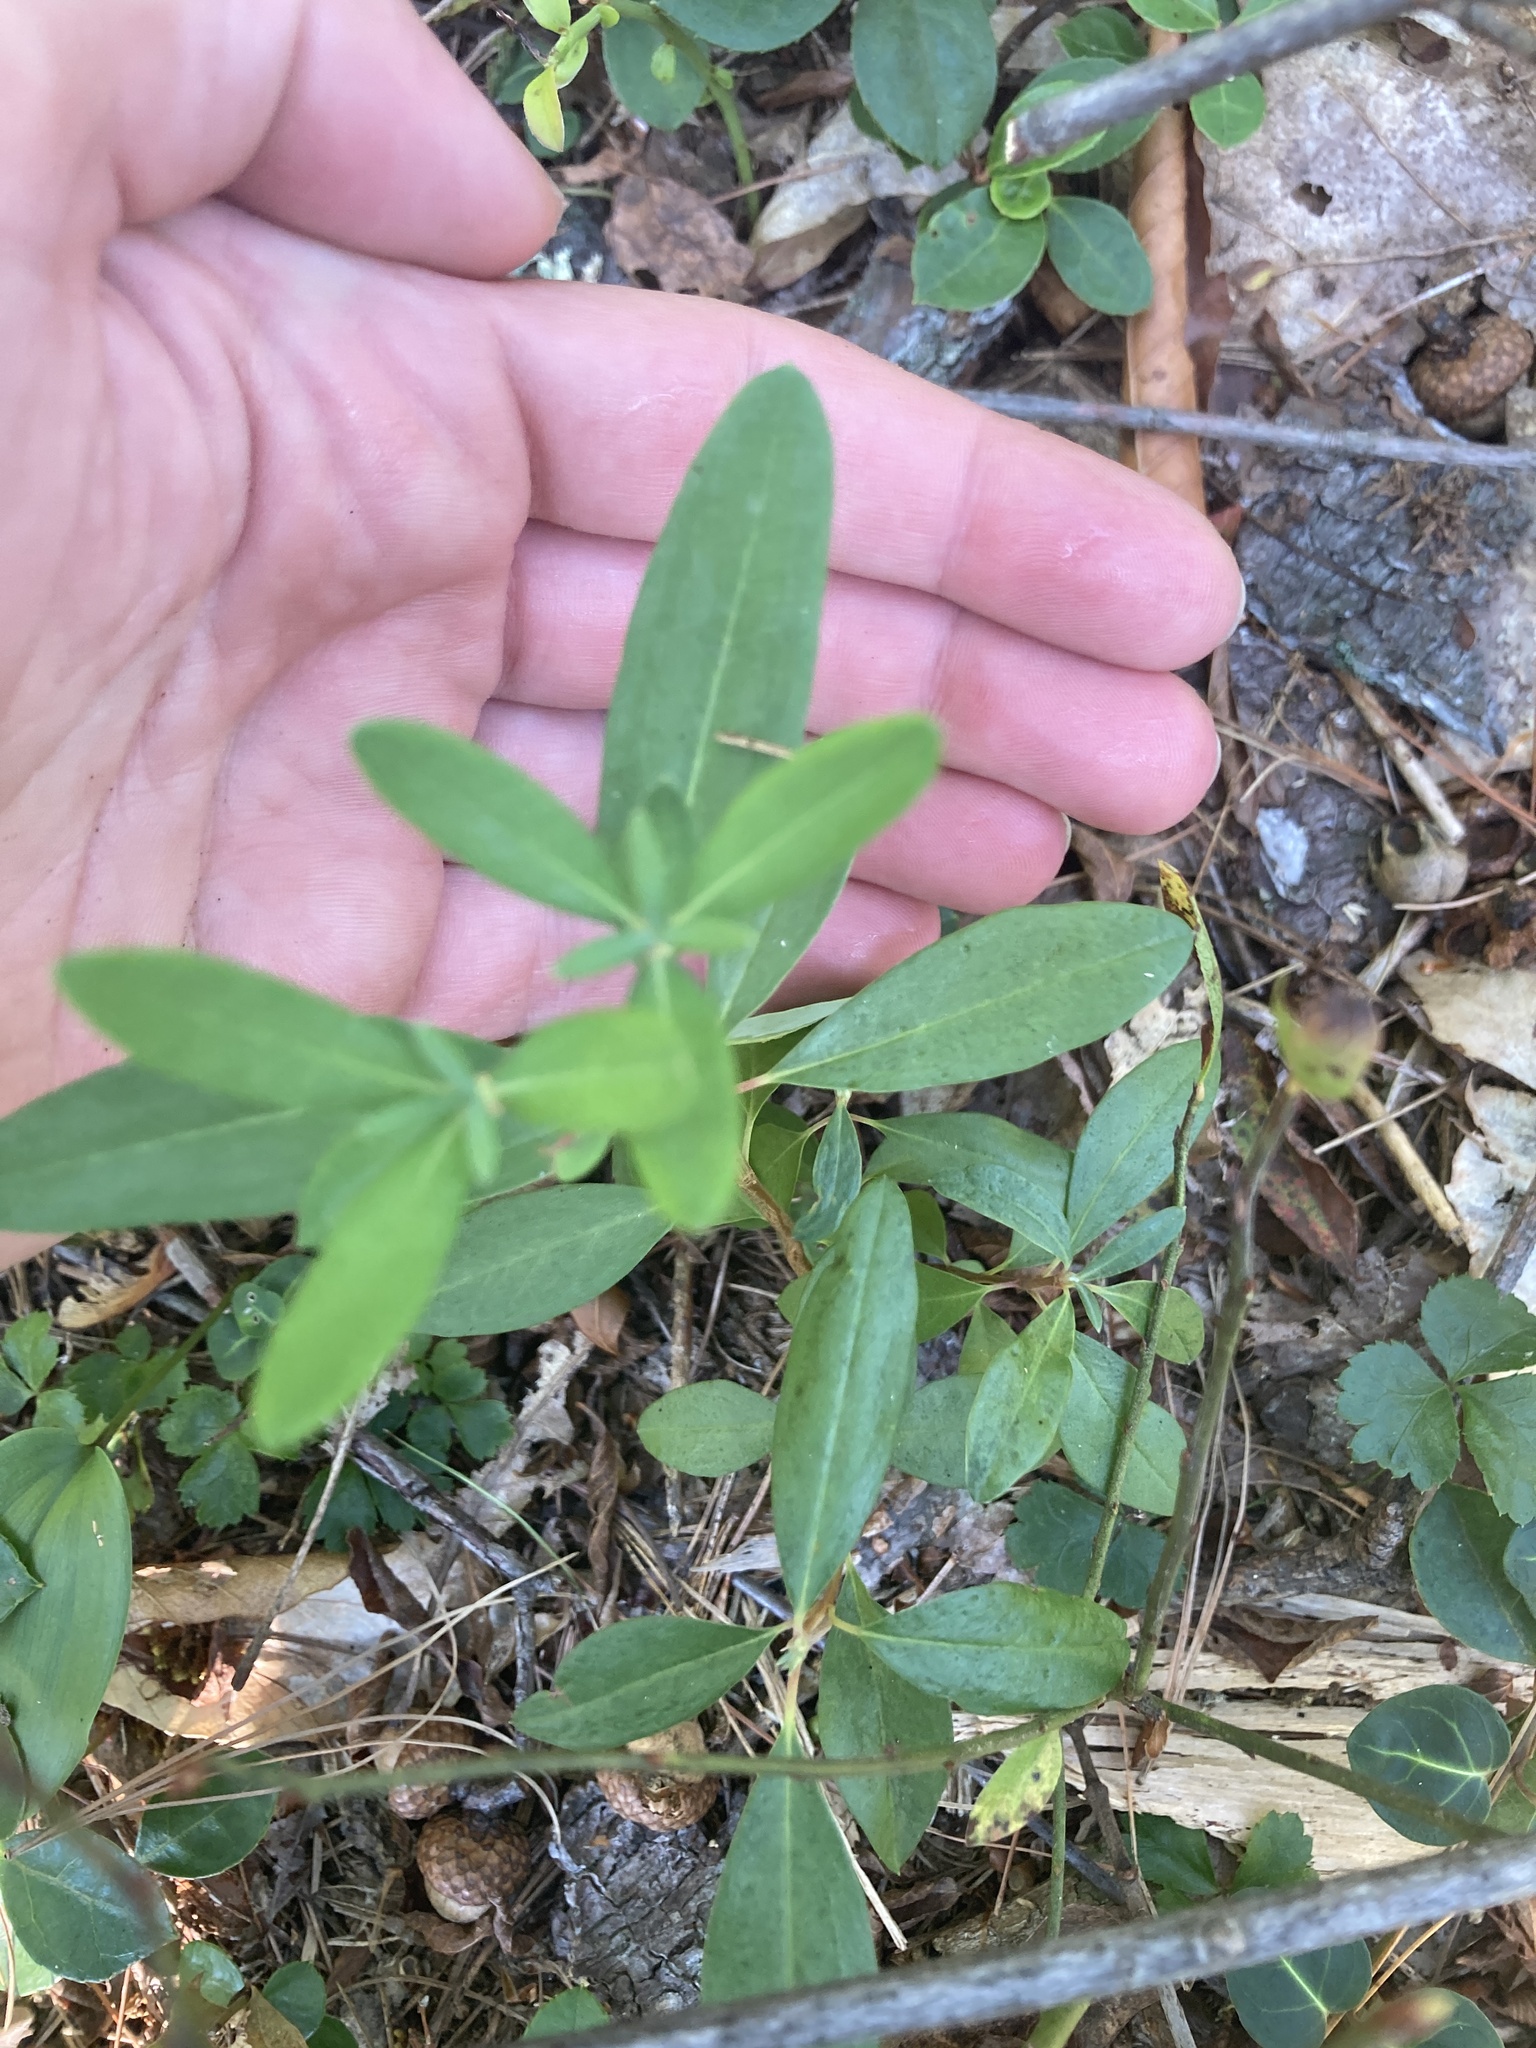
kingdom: Plantae
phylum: Tracheophyta
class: Magnoliopsida
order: Ericales
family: Ericaceae
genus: Kalmia
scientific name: Kalmia angustifolia
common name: Sheep-laurel
